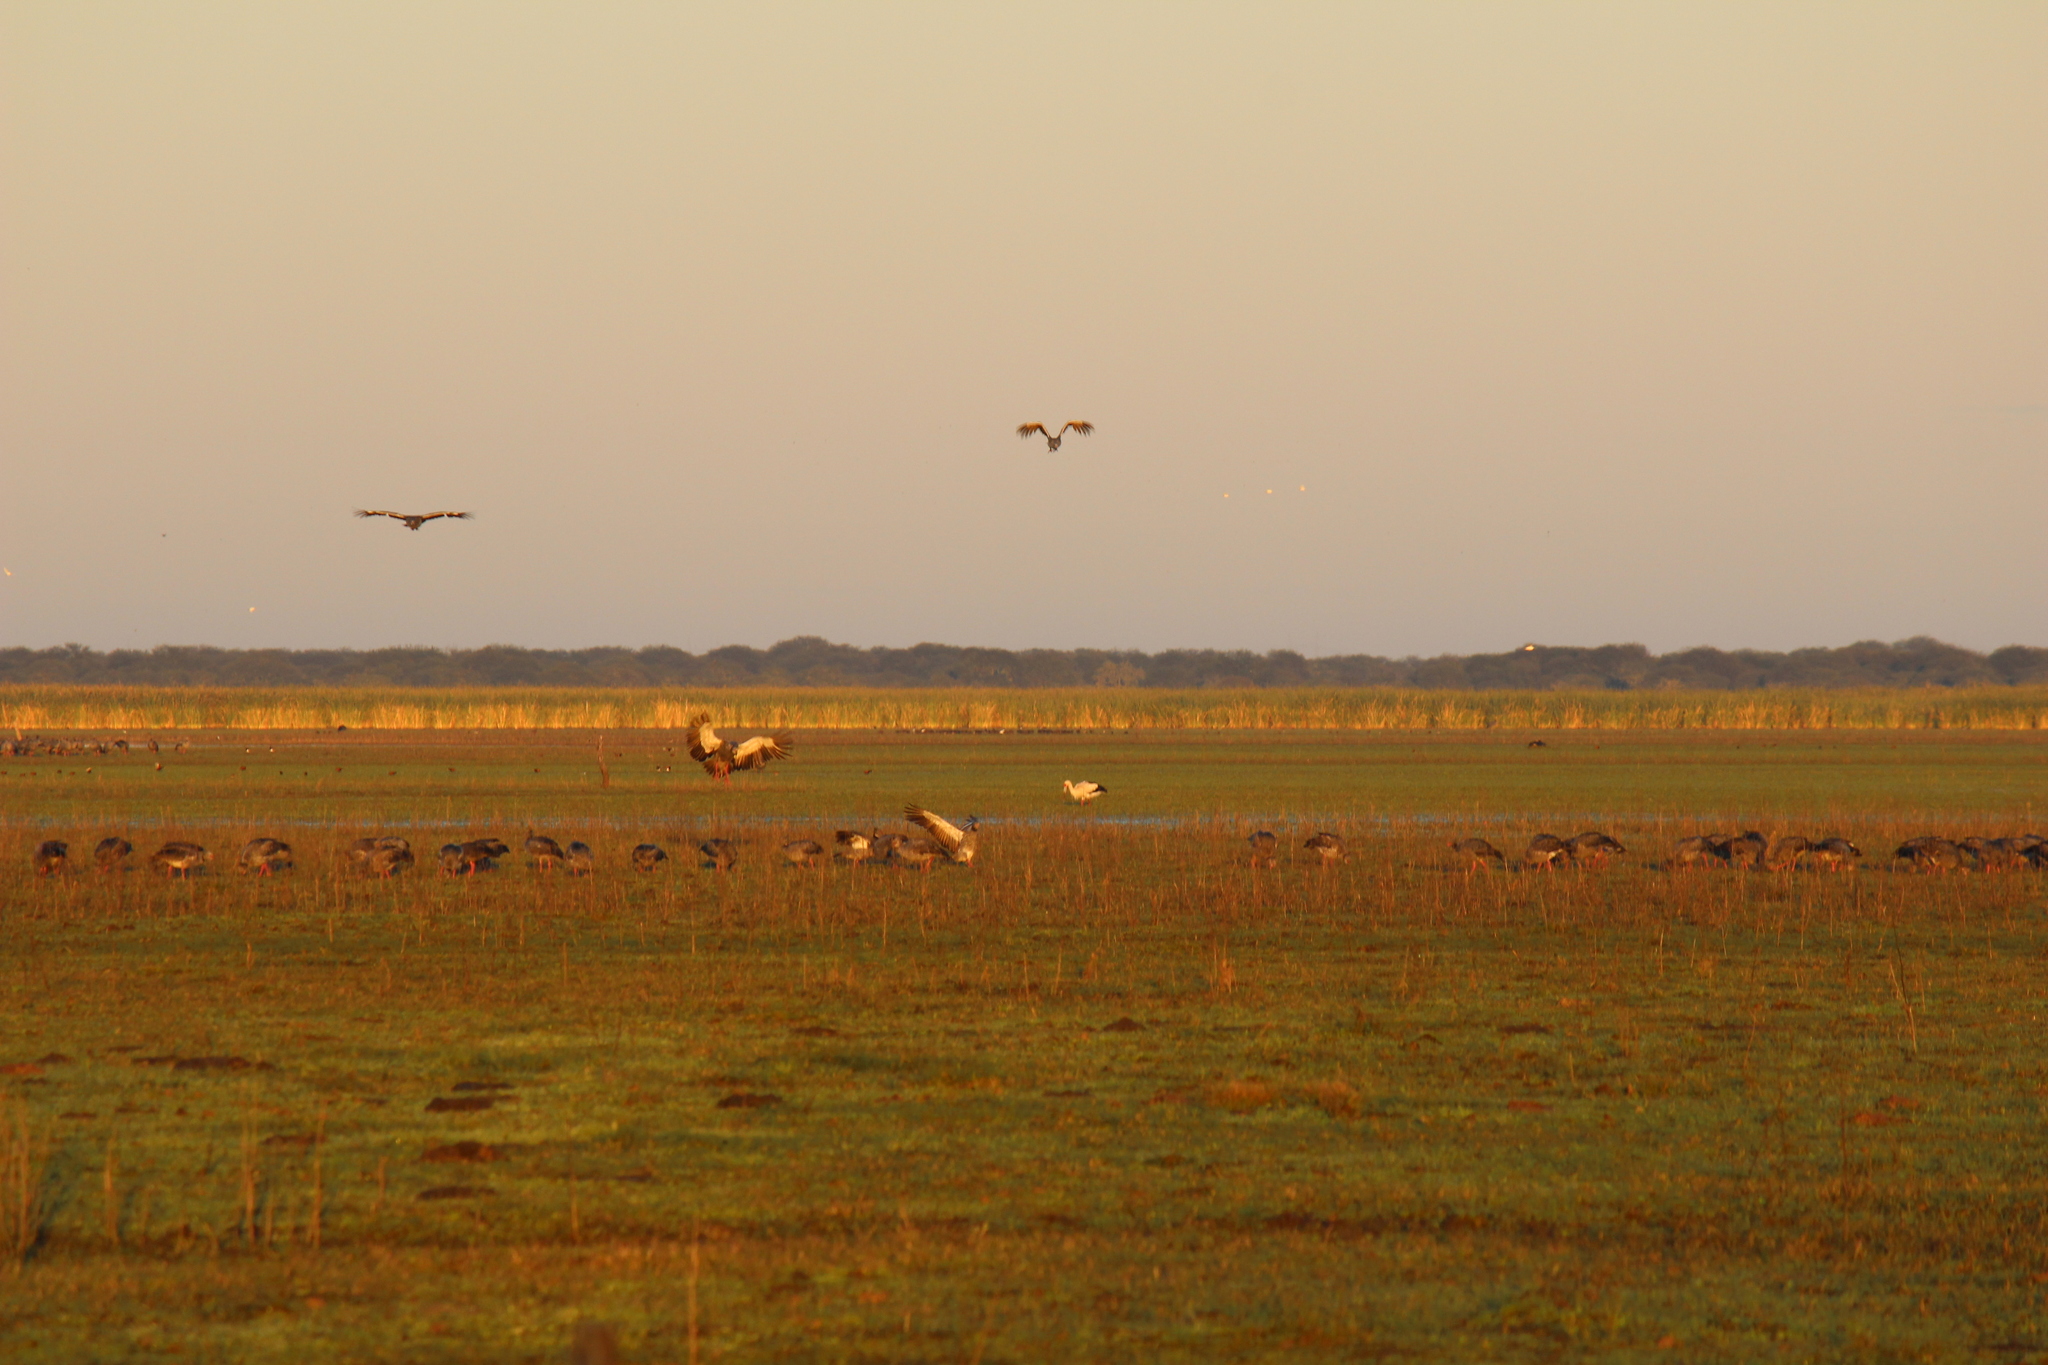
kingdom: Animalia
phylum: Chordata
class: Aves
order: Anseriformes
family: Anhimidae
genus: Chauna
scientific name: Chauna torquata
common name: Southern screamer
